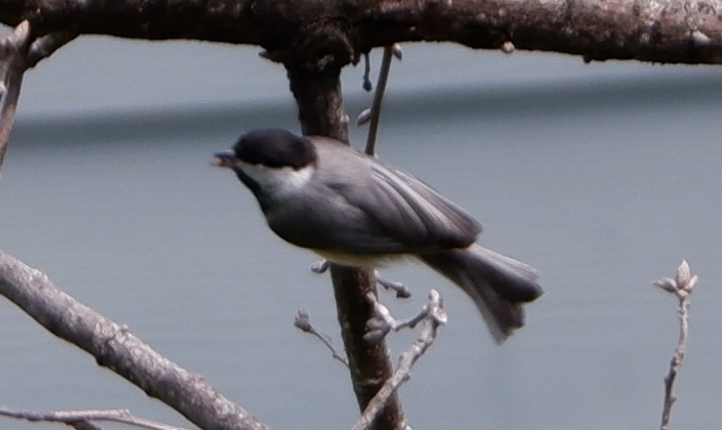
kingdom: Animalia
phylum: Chordata
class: Aves
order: Passeriformes
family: Paridae
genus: Poecile
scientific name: Poecile carolinensis
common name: Carolina chickadee
